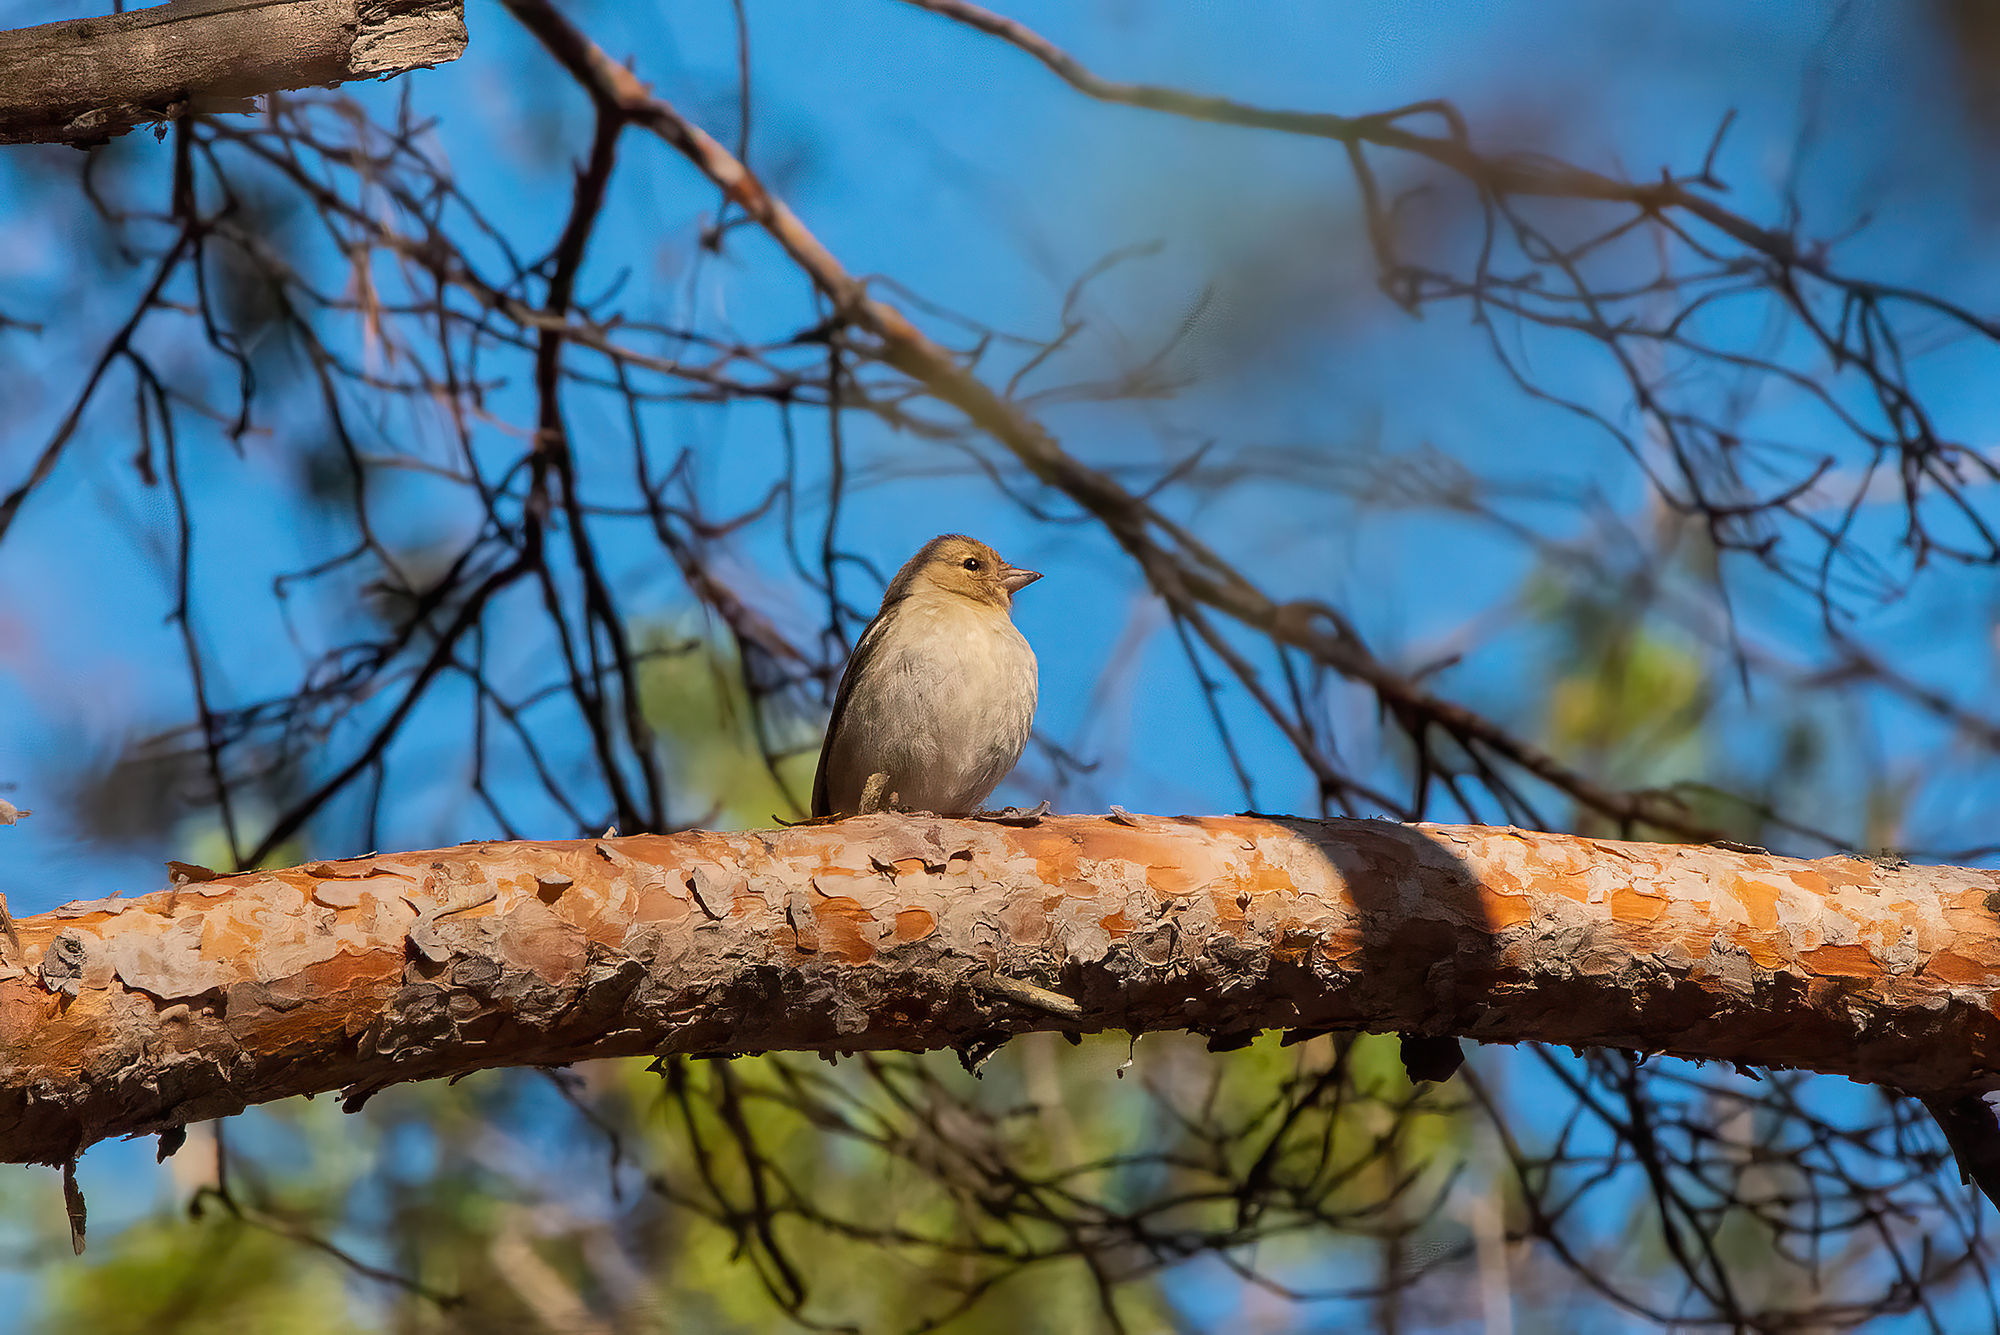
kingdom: Animalia
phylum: Chordata
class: Aves
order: Passeriformes
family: Fringillidae
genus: Fringilla
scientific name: Fringilla coelebs
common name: Common chaffinch
